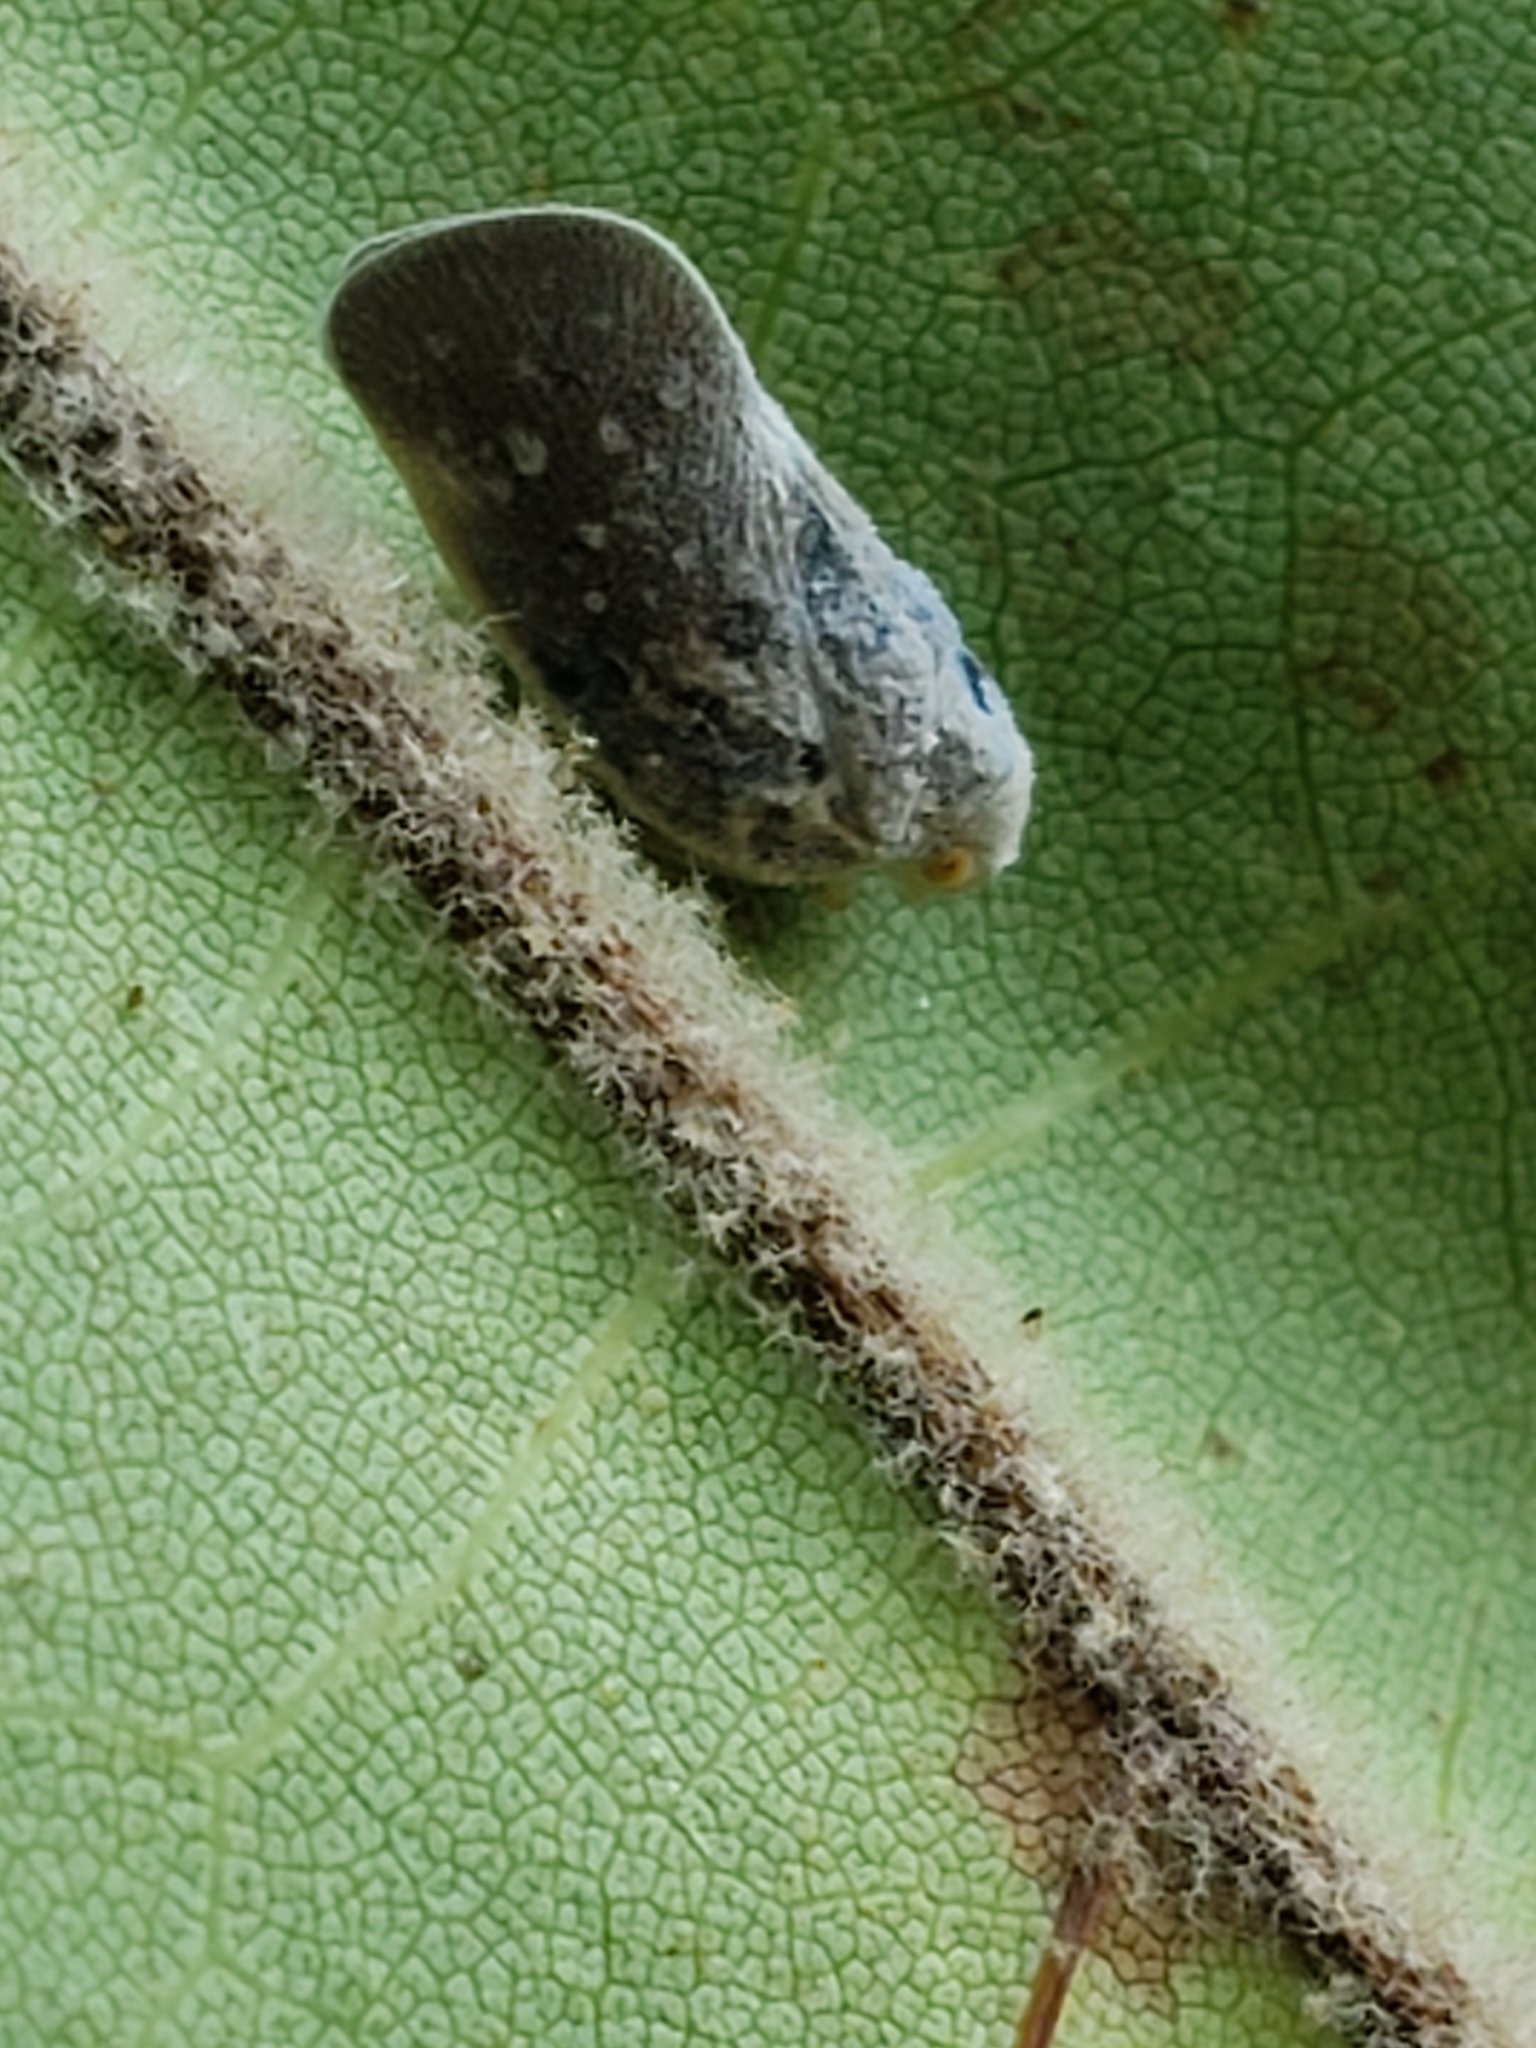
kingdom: Animalia
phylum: Arthropoda
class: Insecta
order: Hemiptera
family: Flatidae
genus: Metcalfa
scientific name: Metcalfa pruinosa
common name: Citrus flatid planthopper
